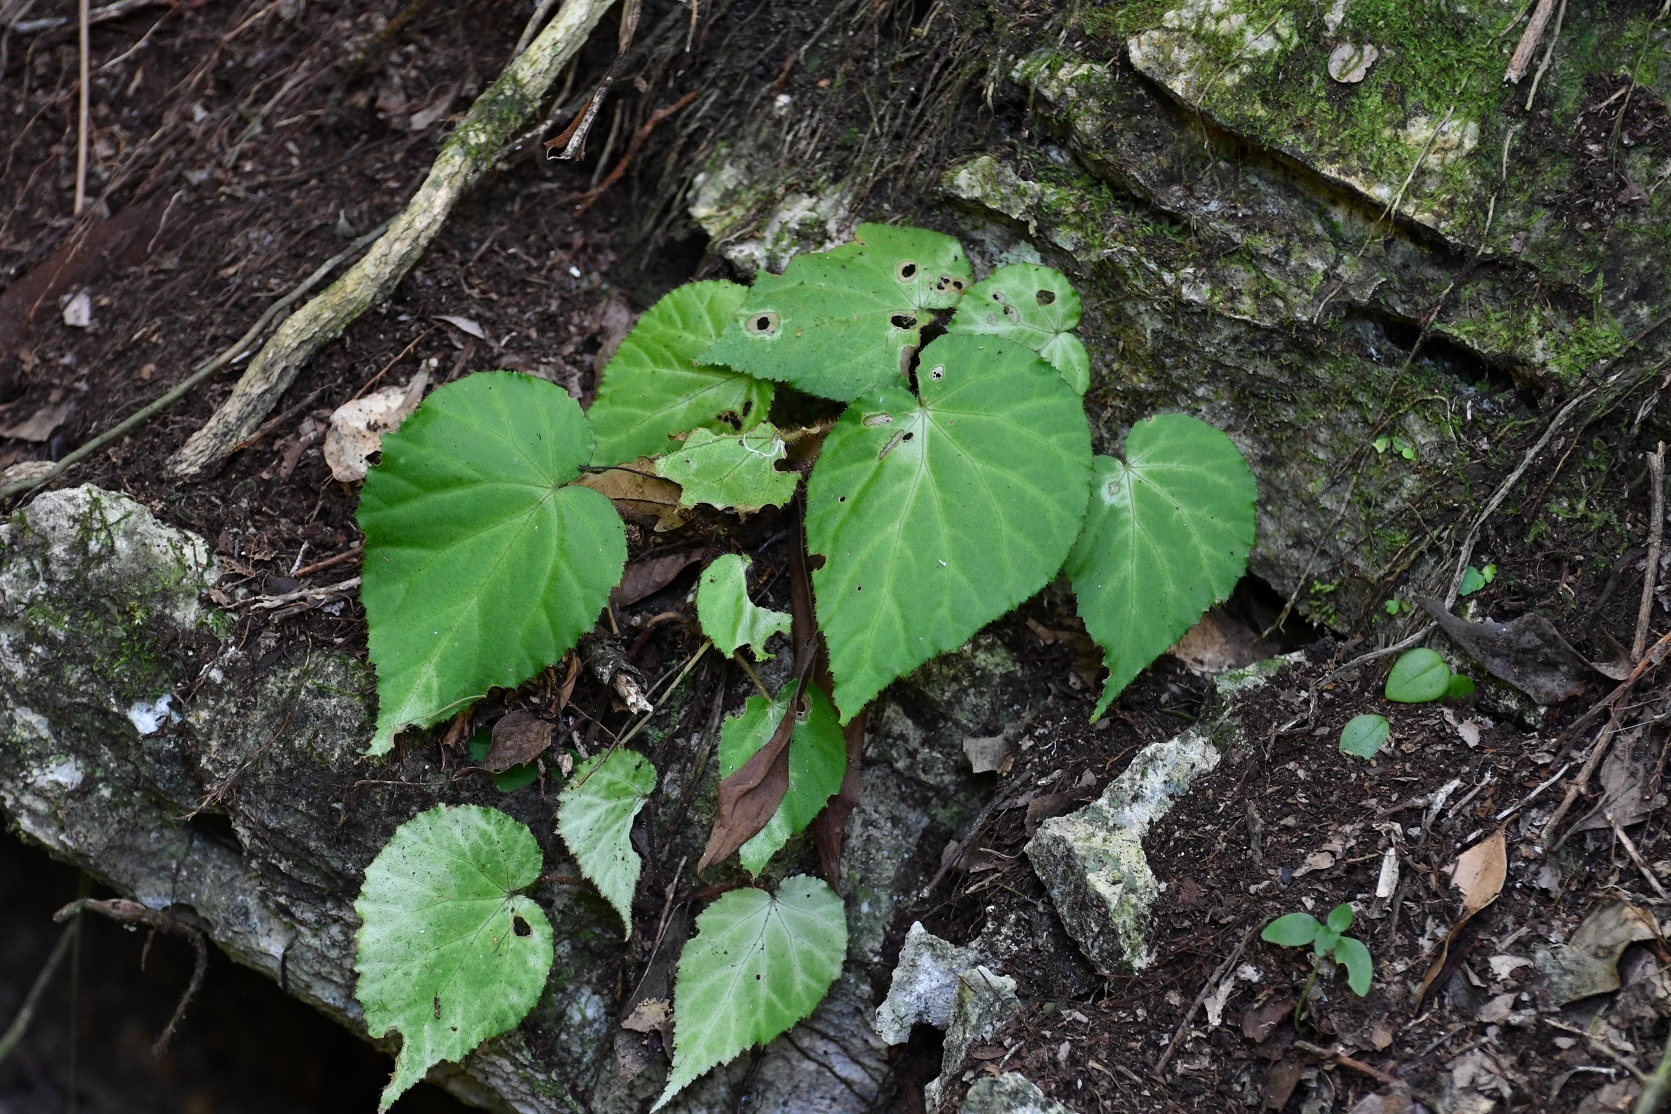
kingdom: Plantae
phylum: Tracheophyta
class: Magnoliopsida
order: Cucurbitales
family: Begoniaceae
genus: Begonia
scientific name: Begonia faustinoi
